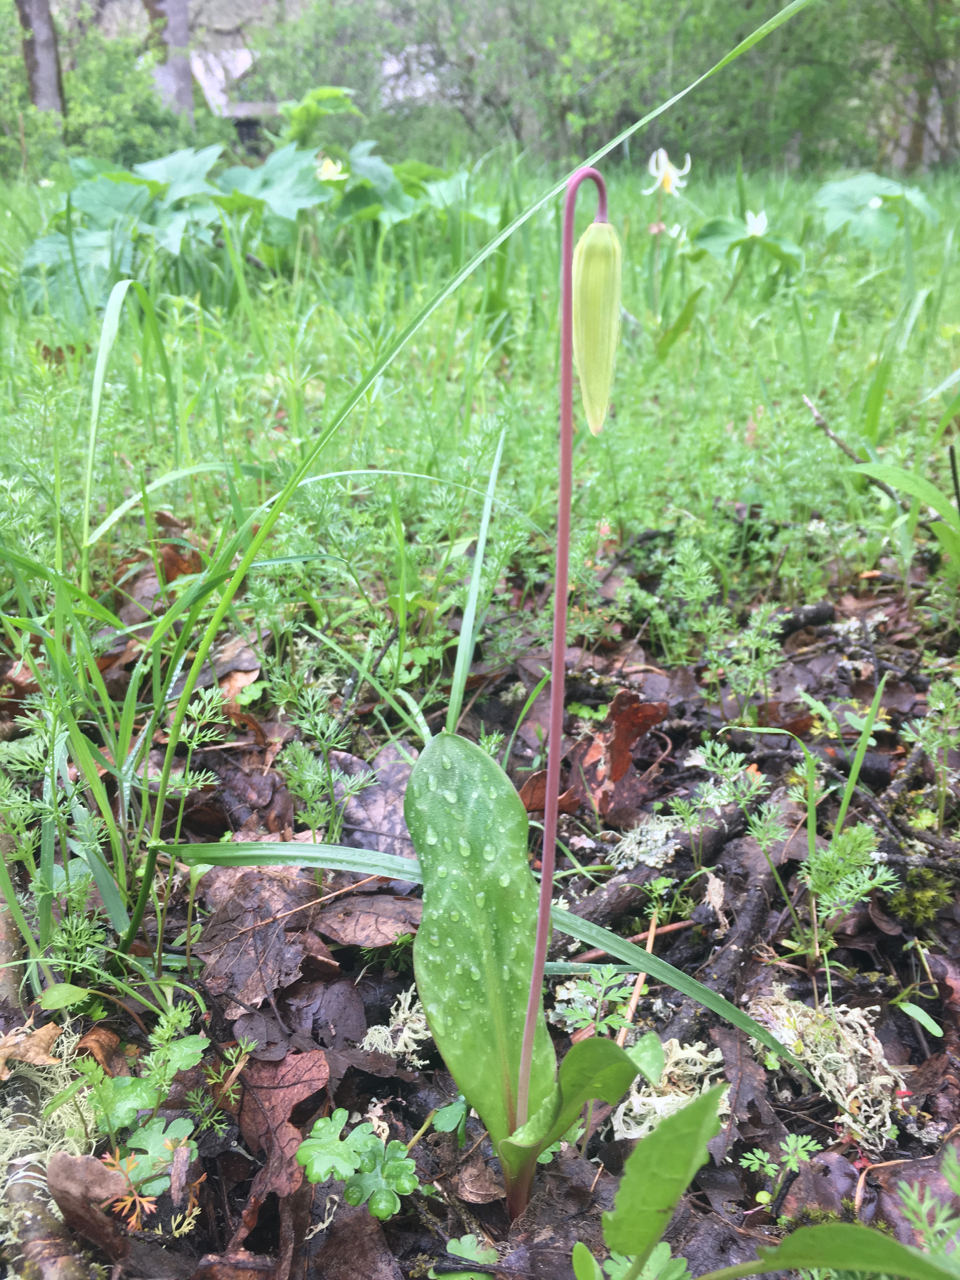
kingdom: Plantae
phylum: Tracheophyta
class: Liliopsida
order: Liliales
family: Liliaceae
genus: Erythronium
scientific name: Erythronium oregonum
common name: Giant adder's-tongue
